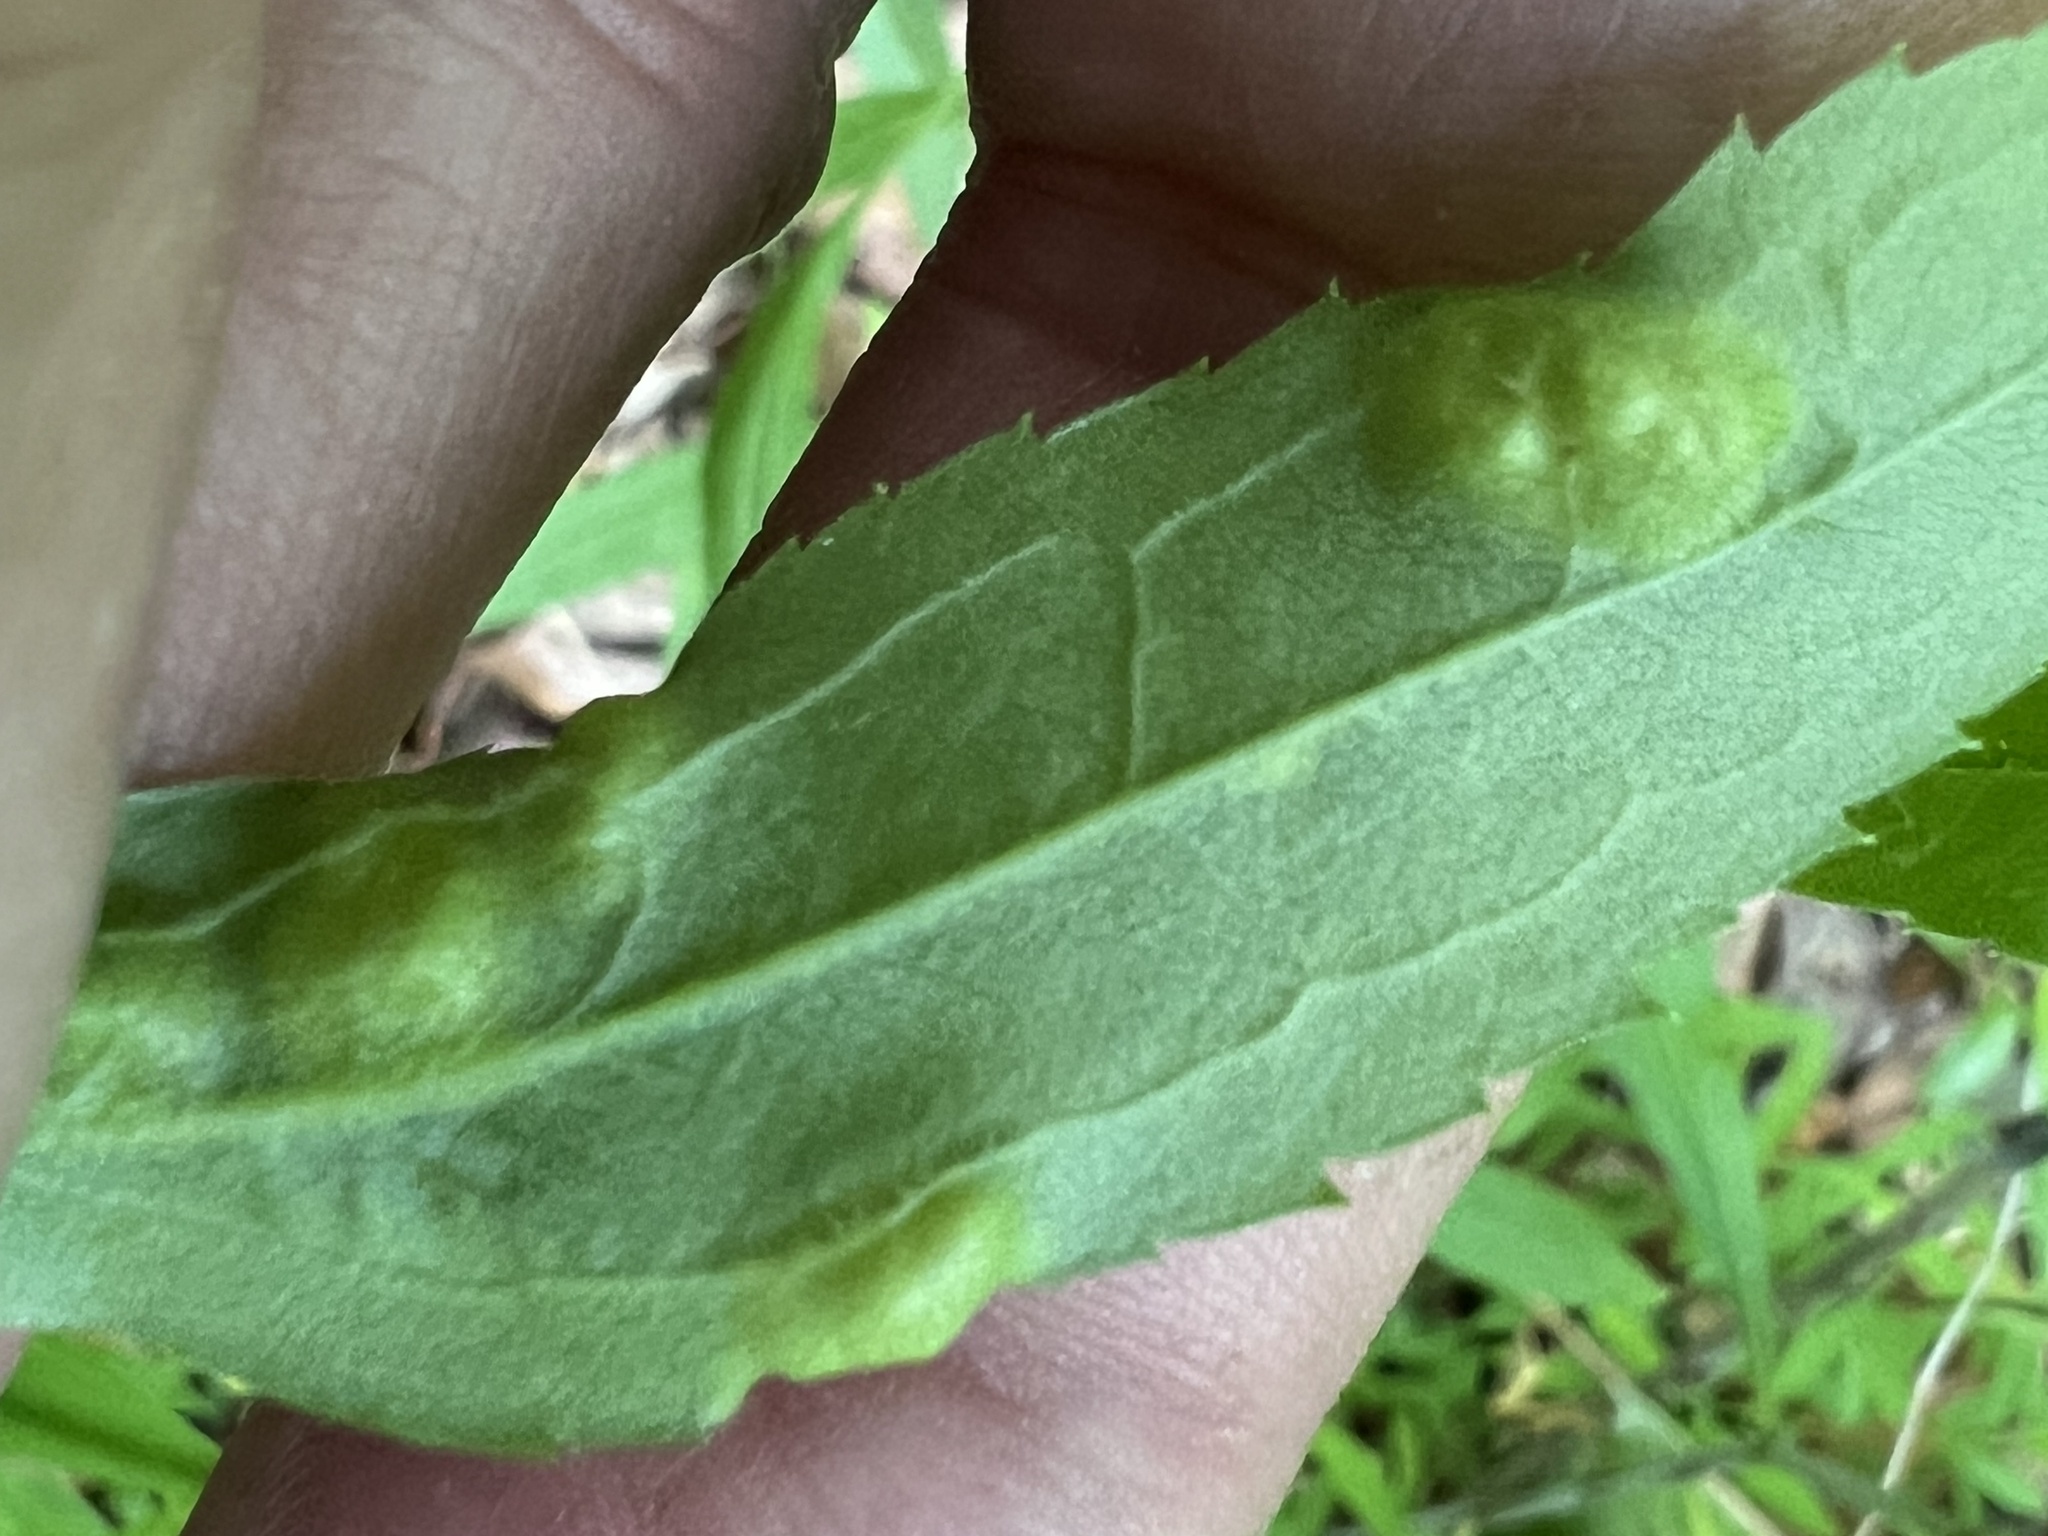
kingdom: Animalia
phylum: Arthropoda
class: Insecta
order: Diptera
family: Cecidomyiidae
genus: Dasineura
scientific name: Dasineura folliculi
